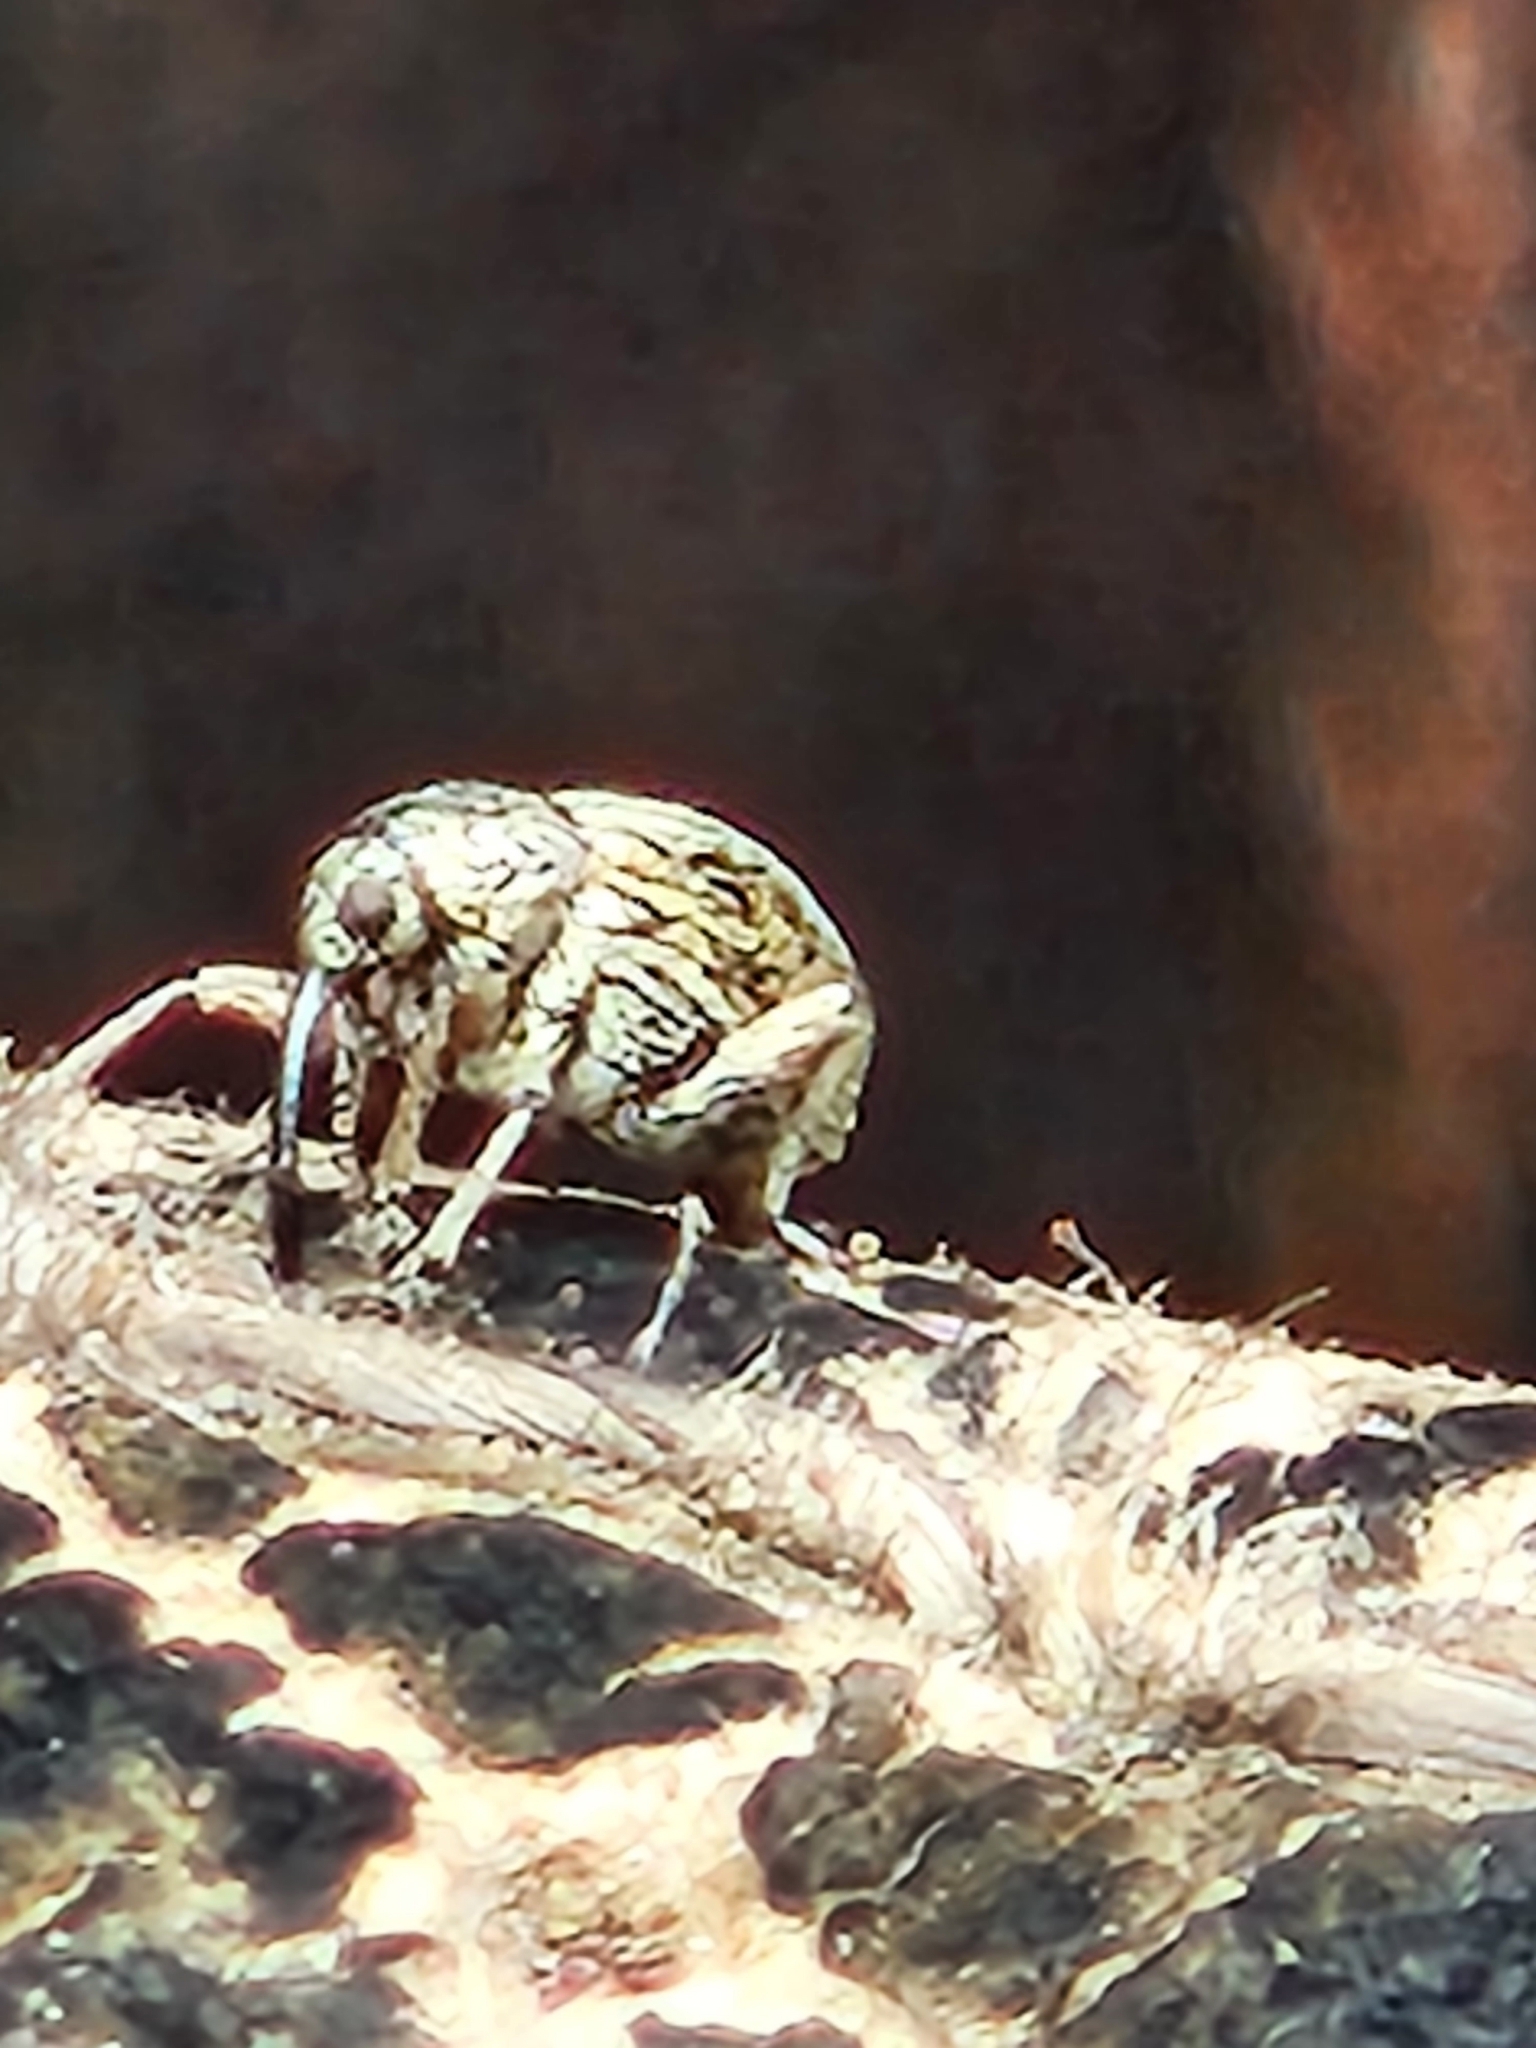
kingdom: Animalia
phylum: Arthropoda
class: Insecta
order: Coleoptera
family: Brentidae
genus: Exapion
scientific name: Exapion ulicis
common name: Gorse seed weevil
